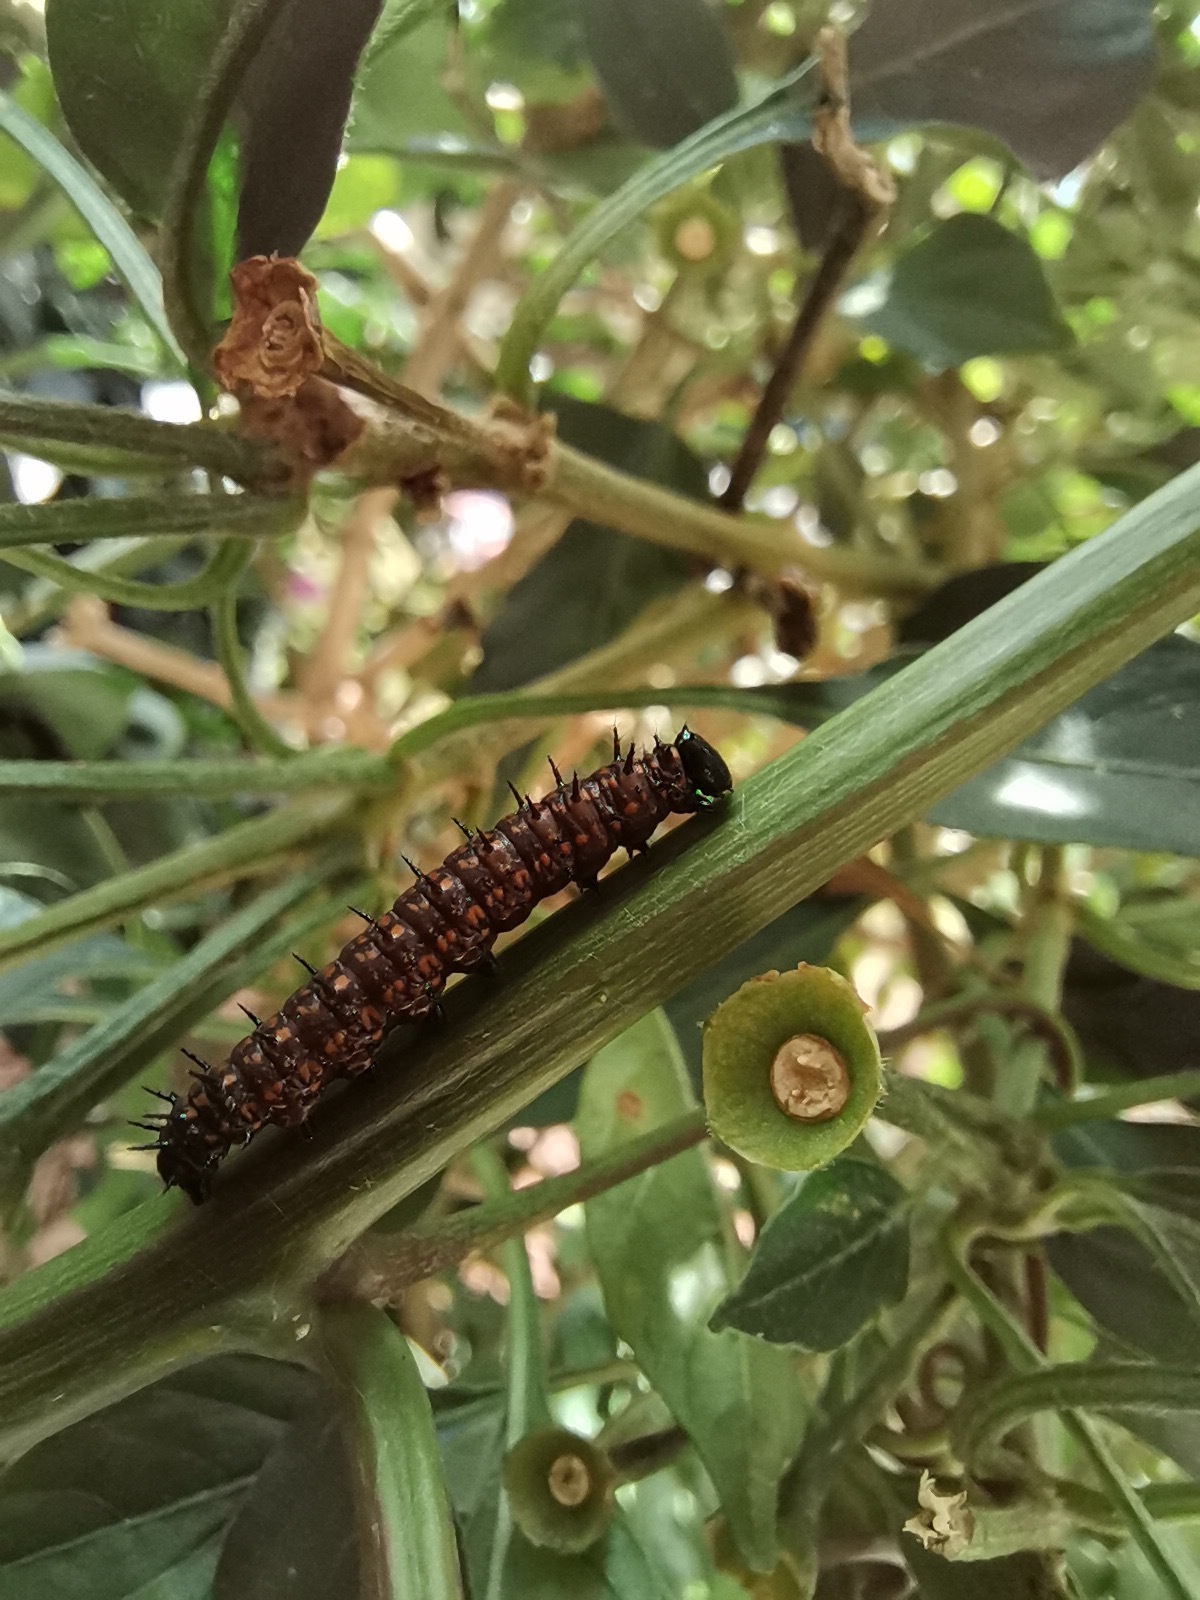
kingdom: Animalia
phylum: Arthropoda
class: Insecta
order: Lepidoptera
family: Nymphalidae
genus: Dione
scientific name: Dione juno
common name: Juno silverspot
